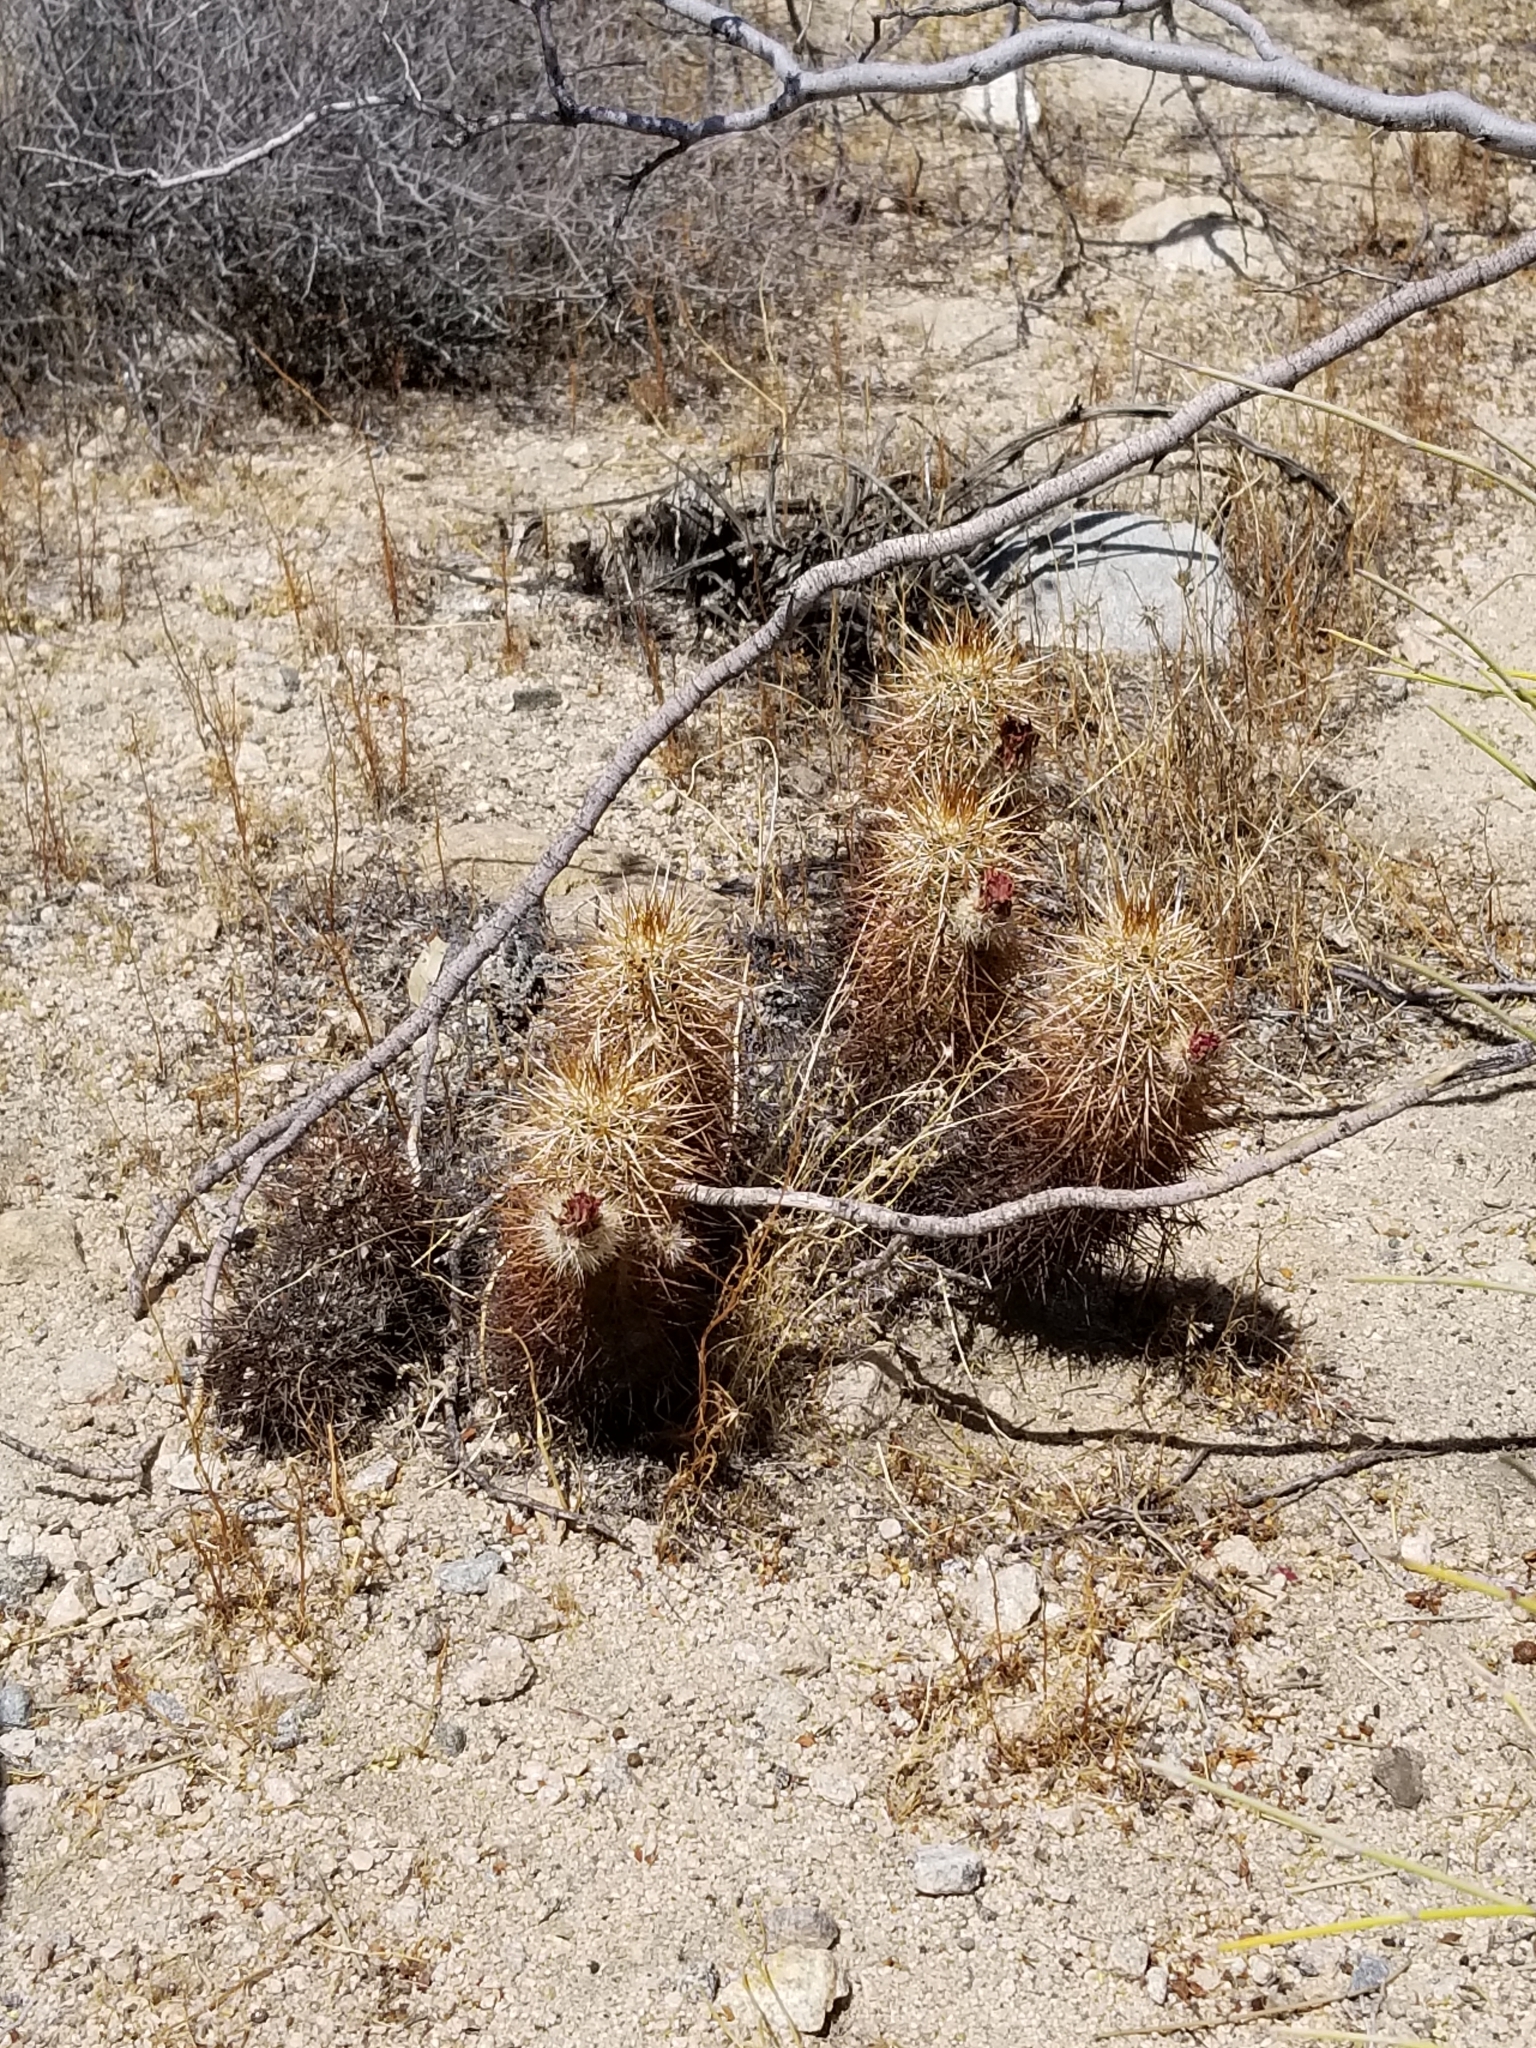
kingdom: Plantae
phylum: Tracheophyta
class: Magnoliopsida
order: Caryophyllales
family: Cactaceae
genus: Echinocereus
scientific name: Echinocereus engelmannii
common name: Engelmann's hedgehog cactus
